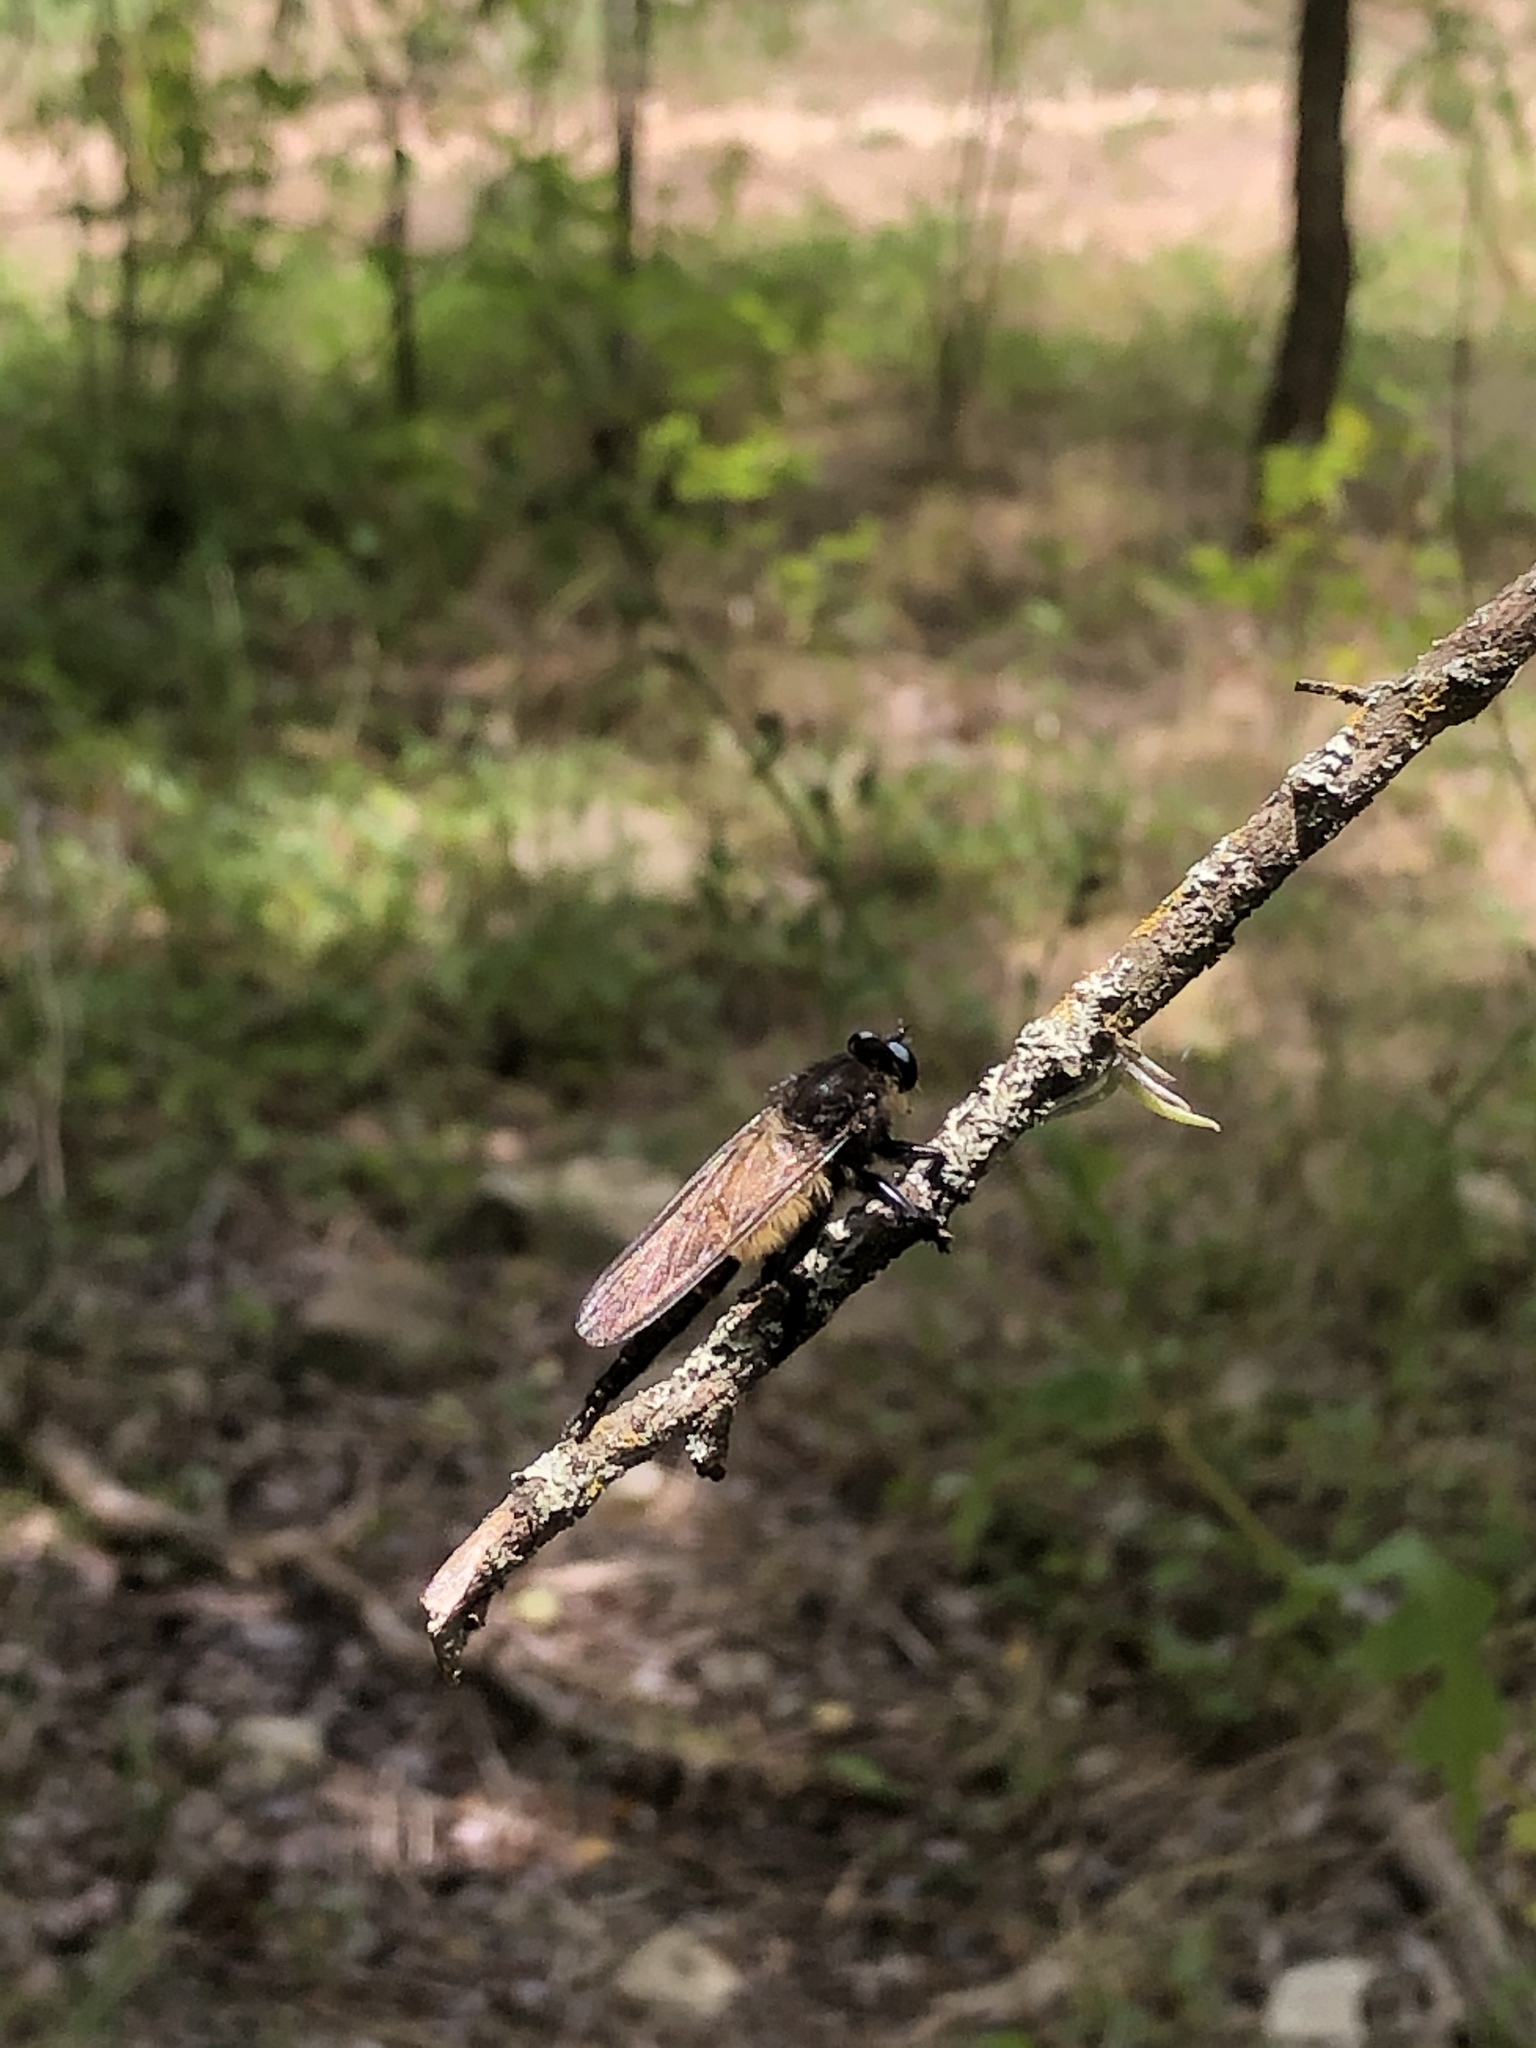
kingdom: Animalia
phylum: Arthropoda
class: Insecta
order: Diptera
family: Asilidae
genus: Promachus
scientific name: Promachus painteri
